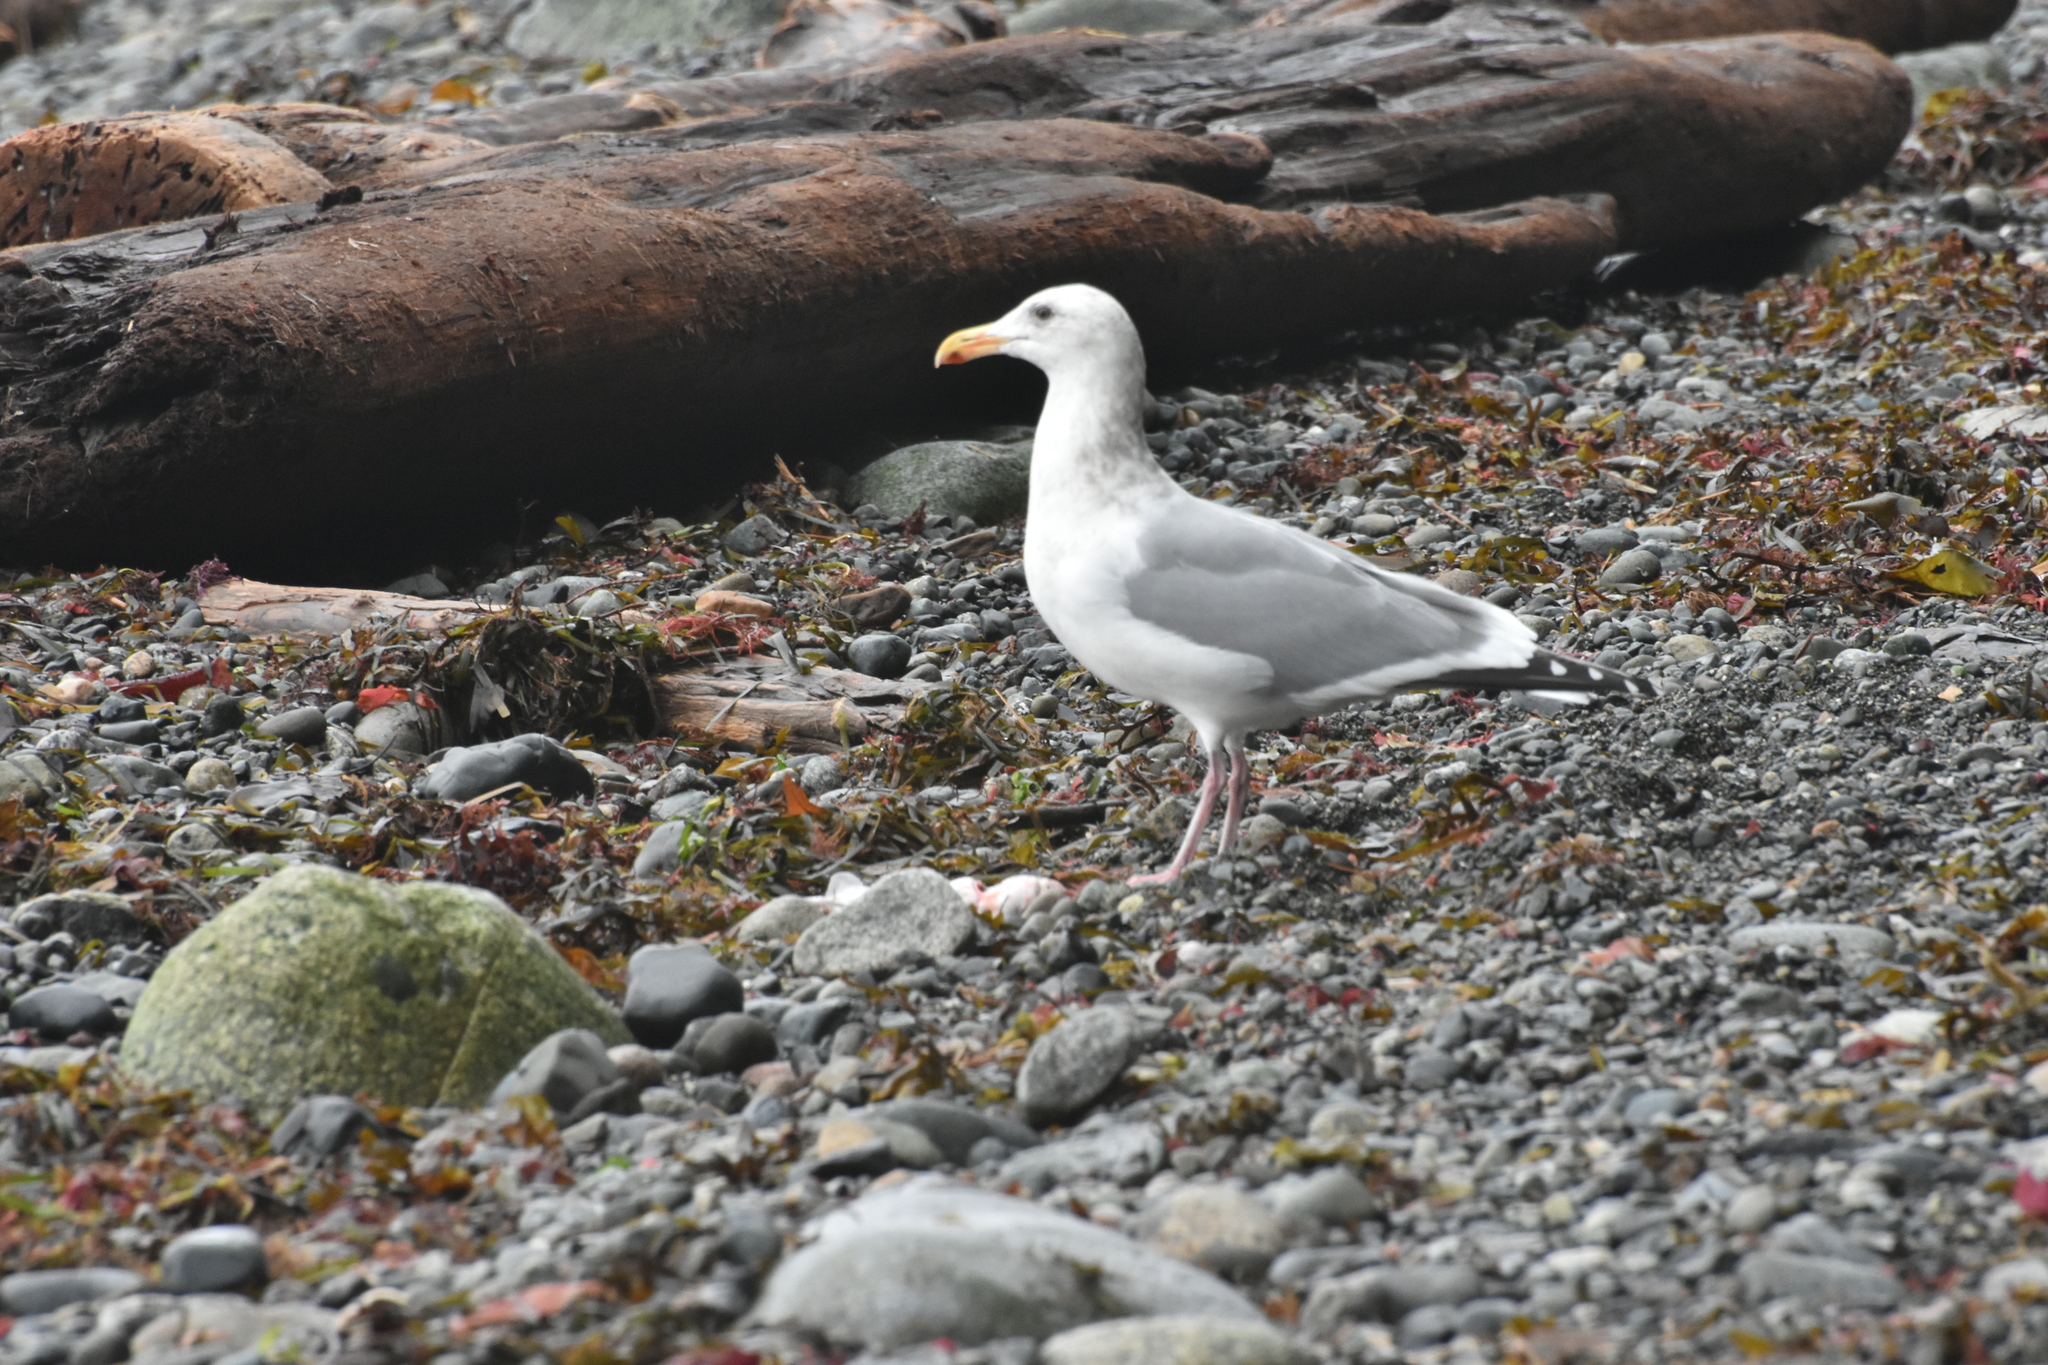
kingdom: Animalia
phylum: Chordata
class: Aves
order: Charadriiformes
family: Laridae
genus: Larus
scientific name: Larus
